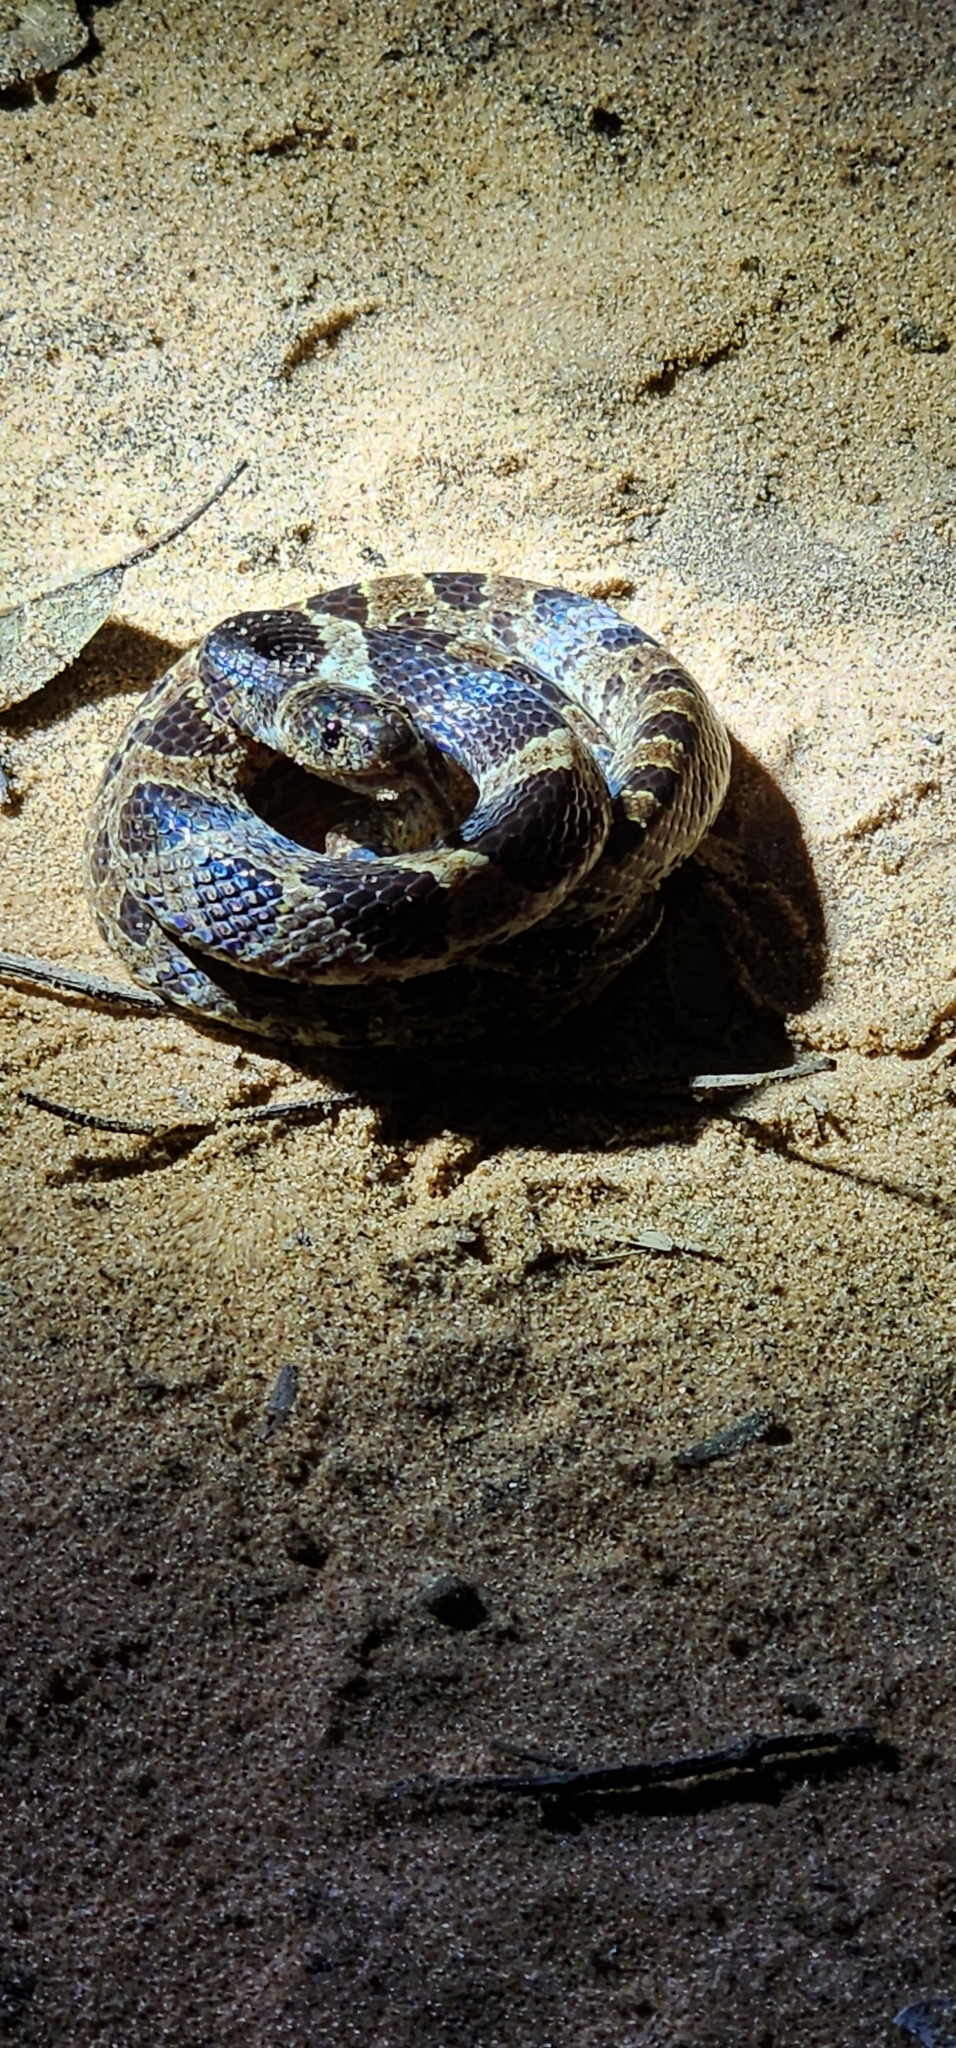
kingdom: Animalia
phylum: Chordata
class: Squamata
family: Colubridae
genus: Dipsas
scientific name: Dipsas turgida
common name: Bolivian tree snake
